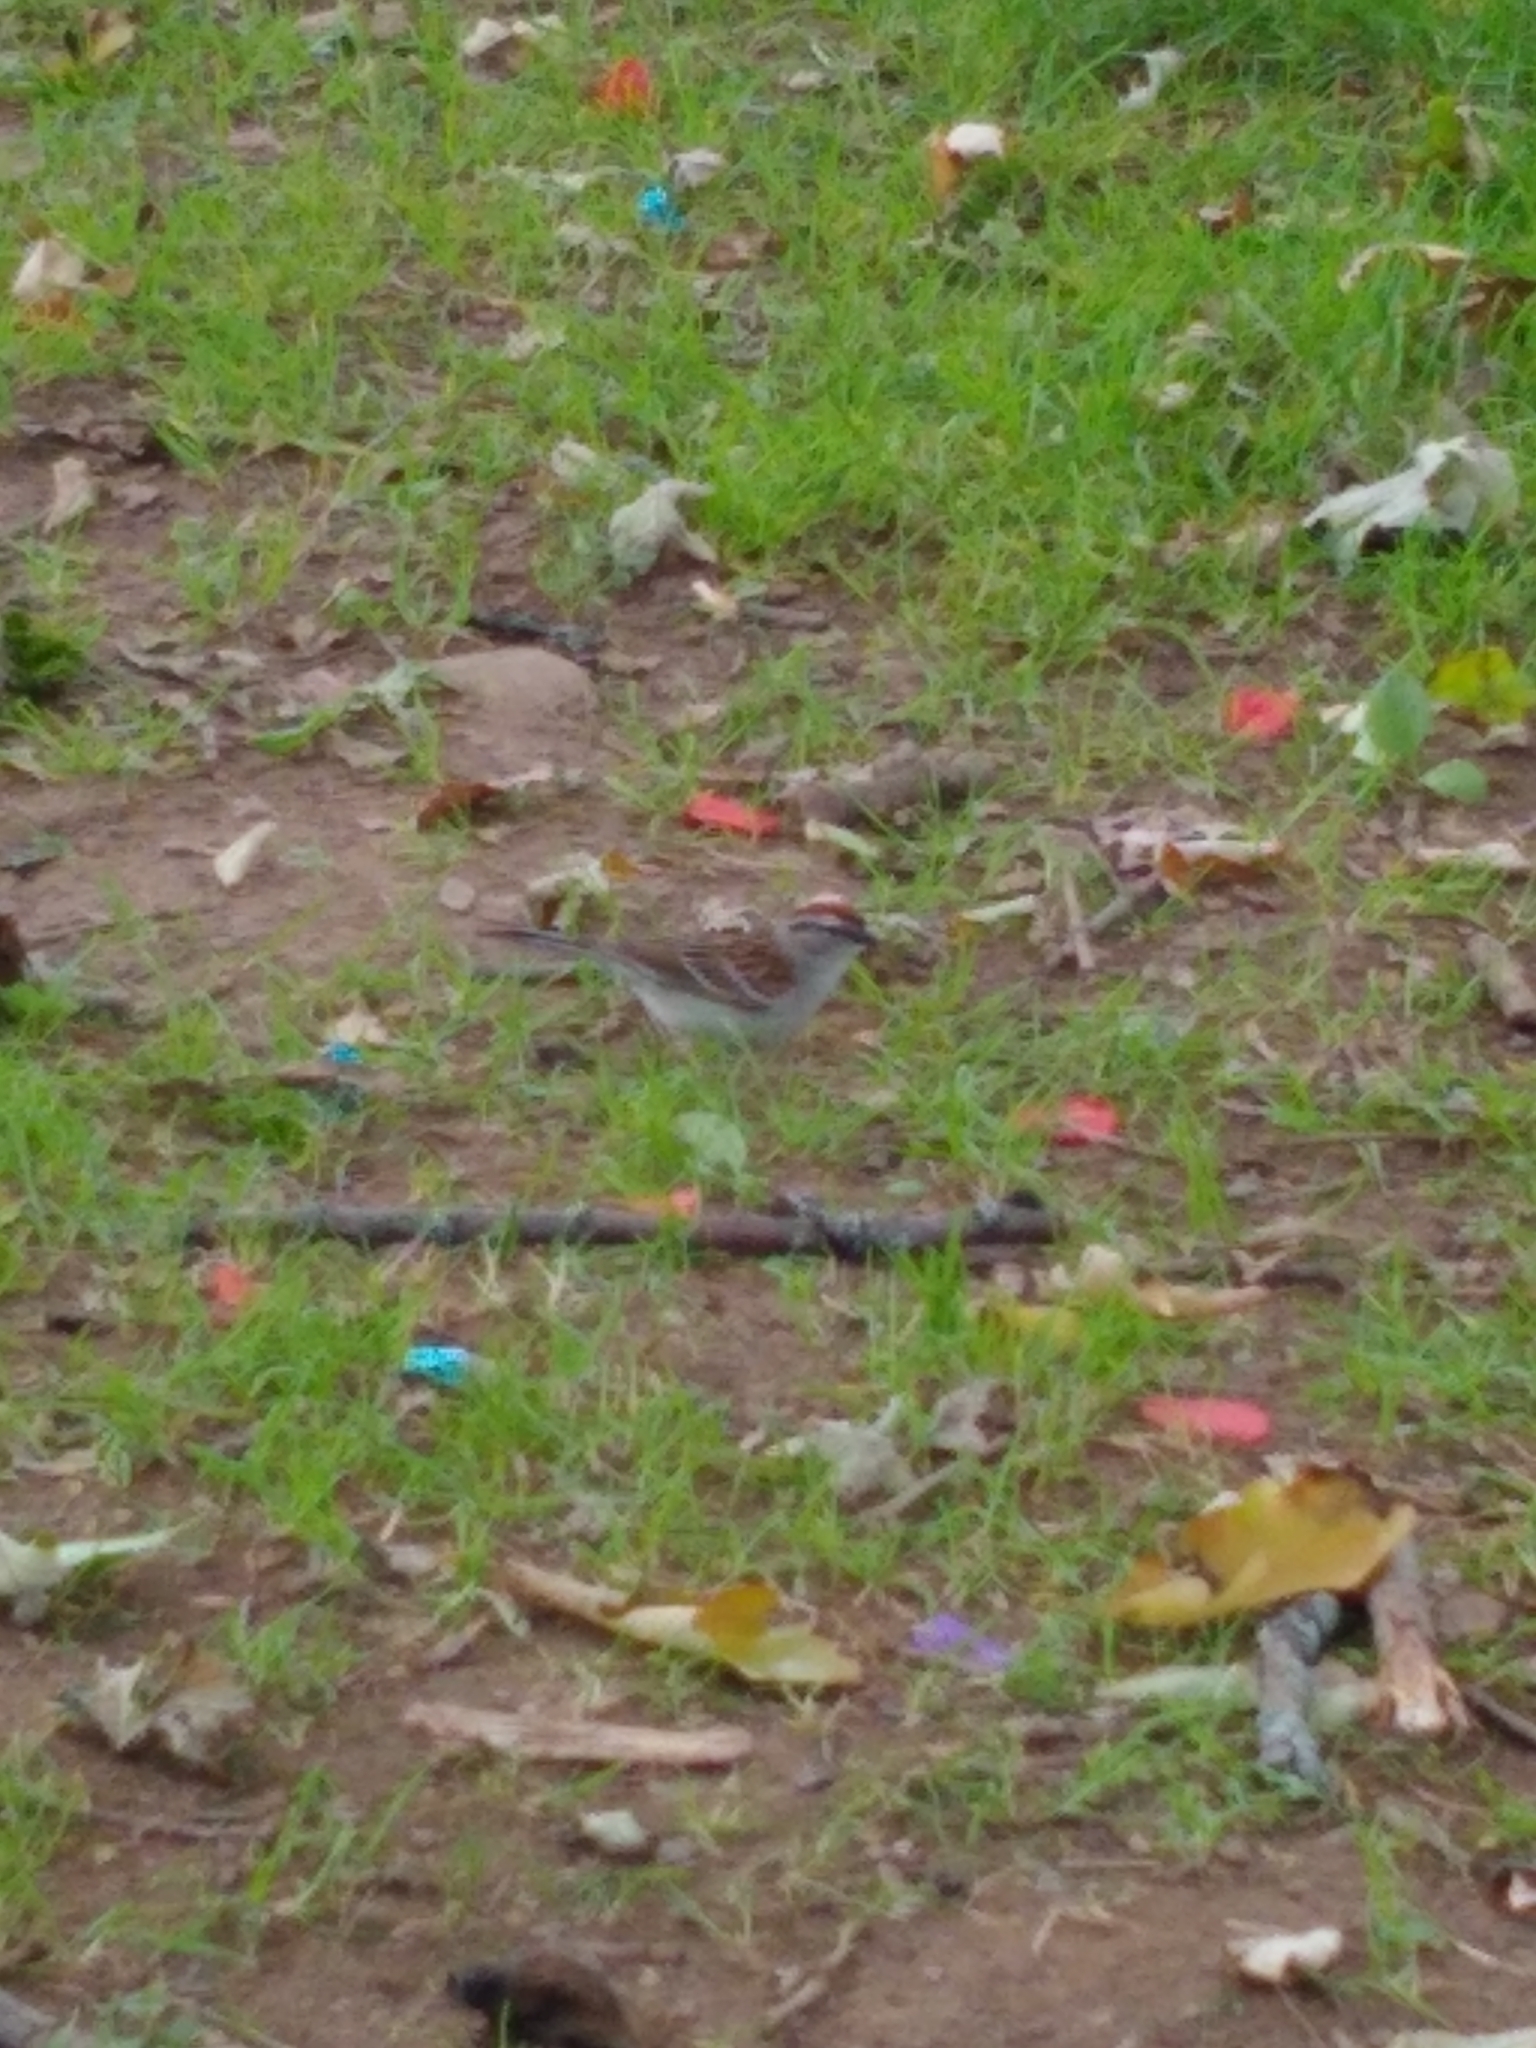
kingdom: Animalia
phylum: Chordata
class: Aves
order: Passeriformes
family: Passerellidae
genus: Spizella
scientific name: Spizella passerina
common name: Chipping sparrow
